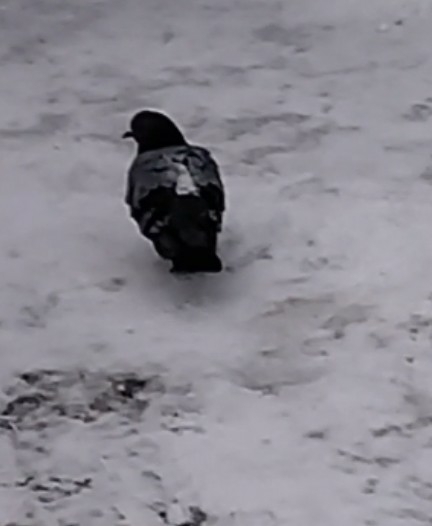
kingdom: Animalia
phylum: Chordata
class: Aves
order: Columbiformes
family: Columbidae
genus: Columba
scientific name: Columba livia
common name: Rock pigeon
